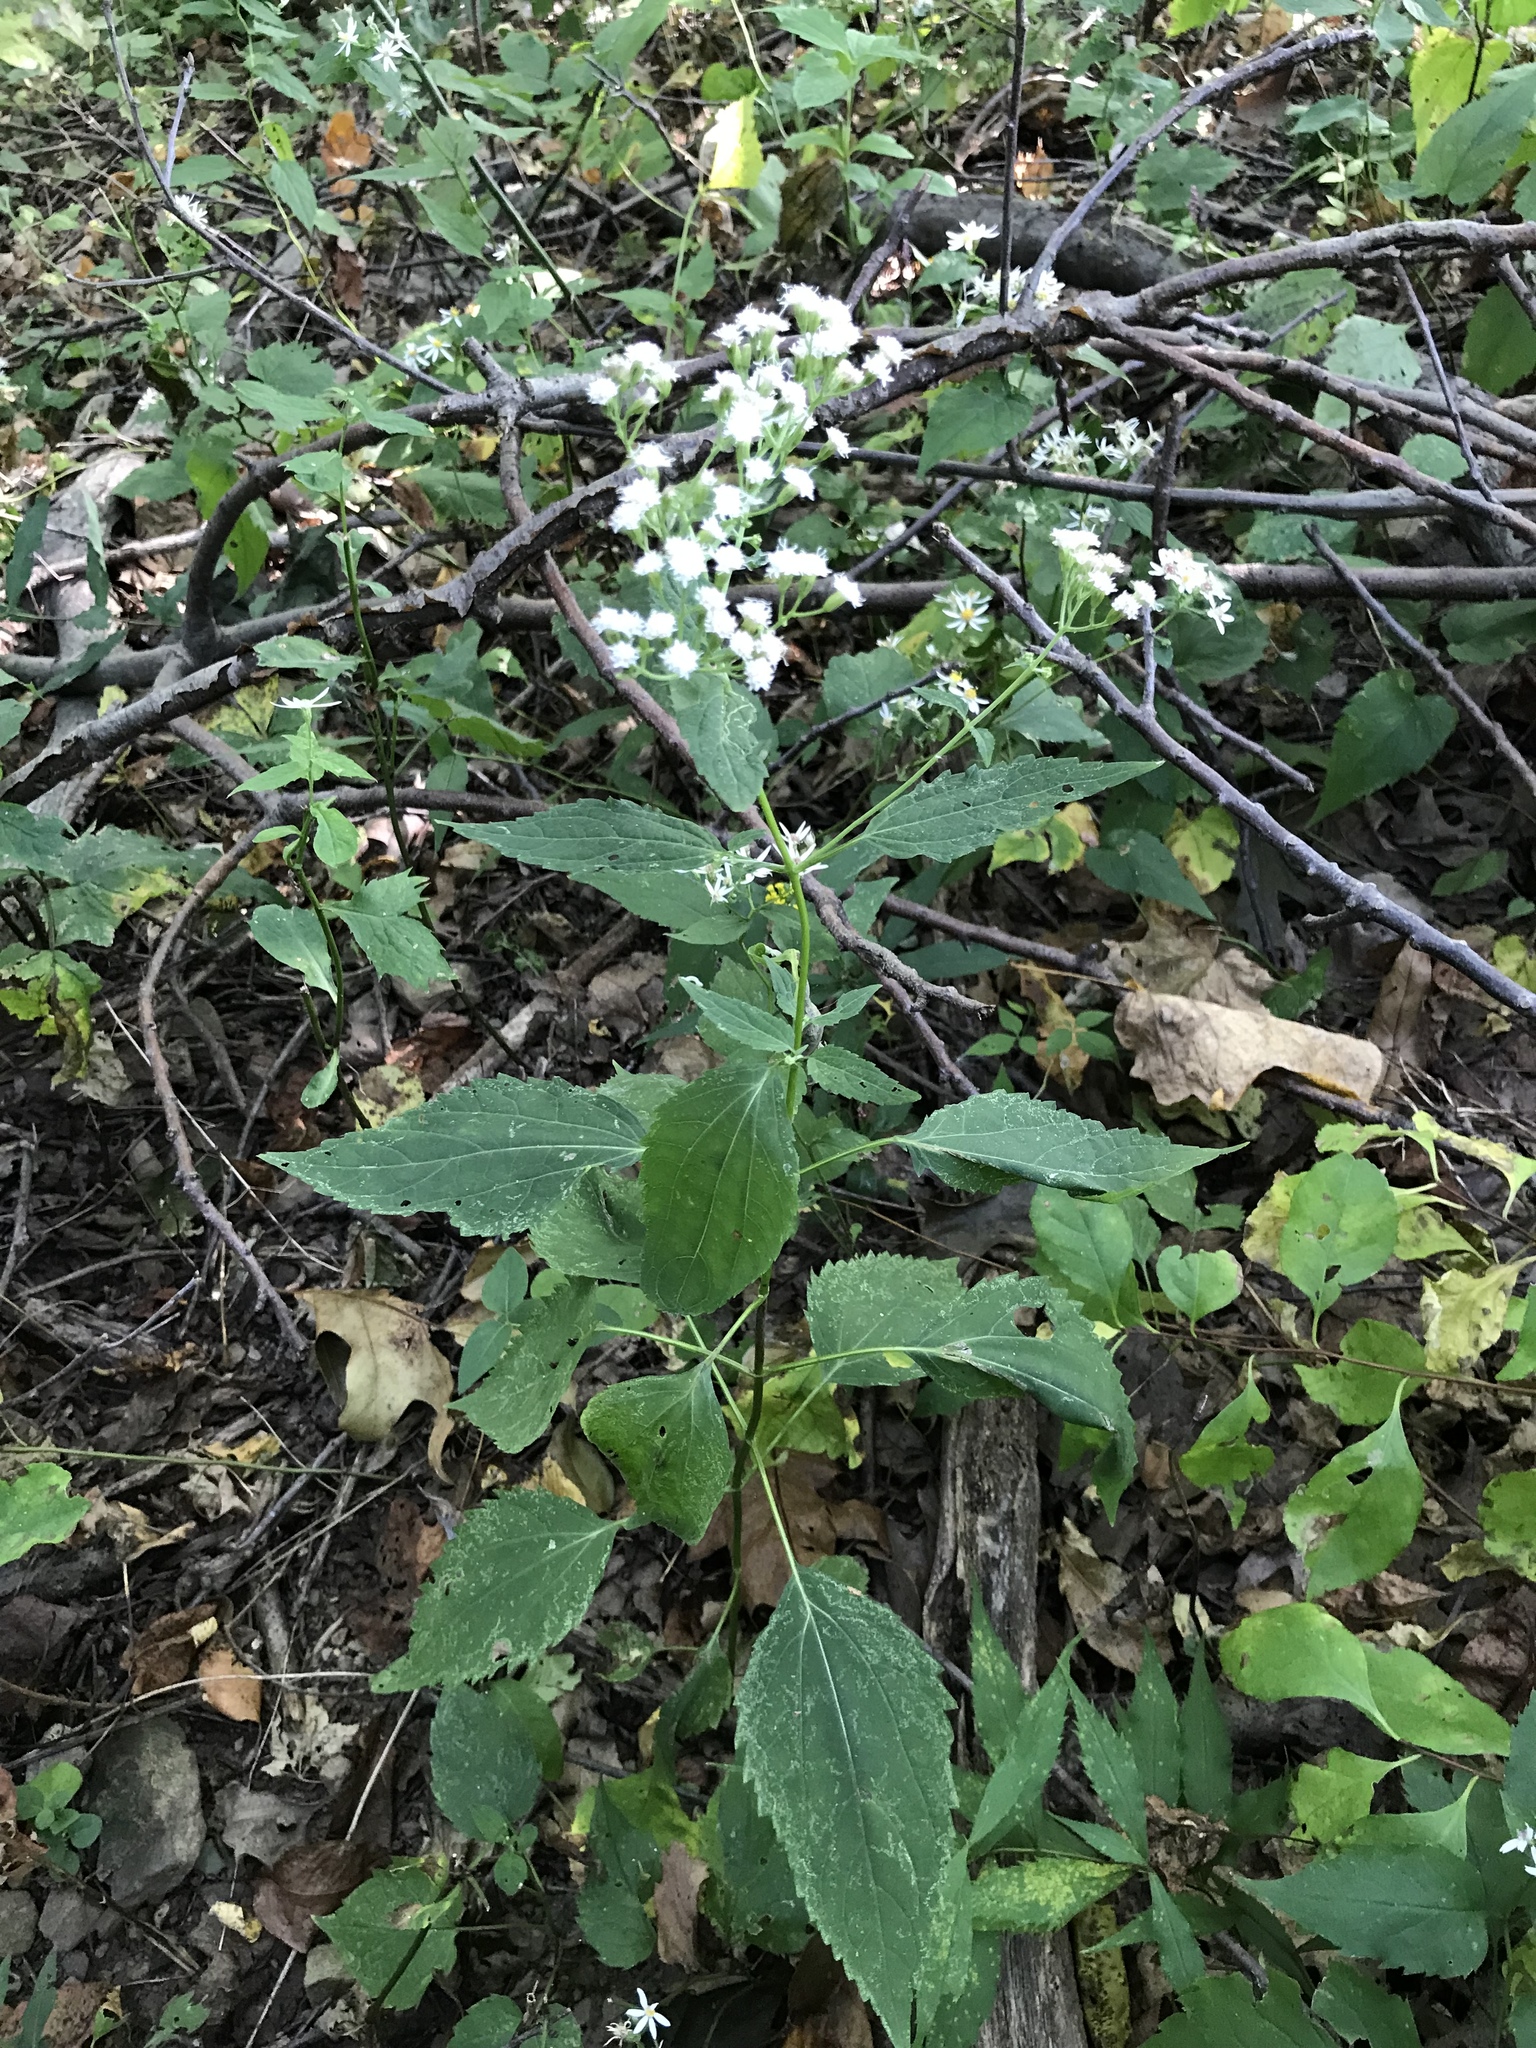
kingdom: Plantae
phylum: Tracheophyta
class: Magnoliopsida
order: Asterales
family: Asteraceae
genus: Ageratina
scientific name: Ageratina altissima
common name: White snakeroot
